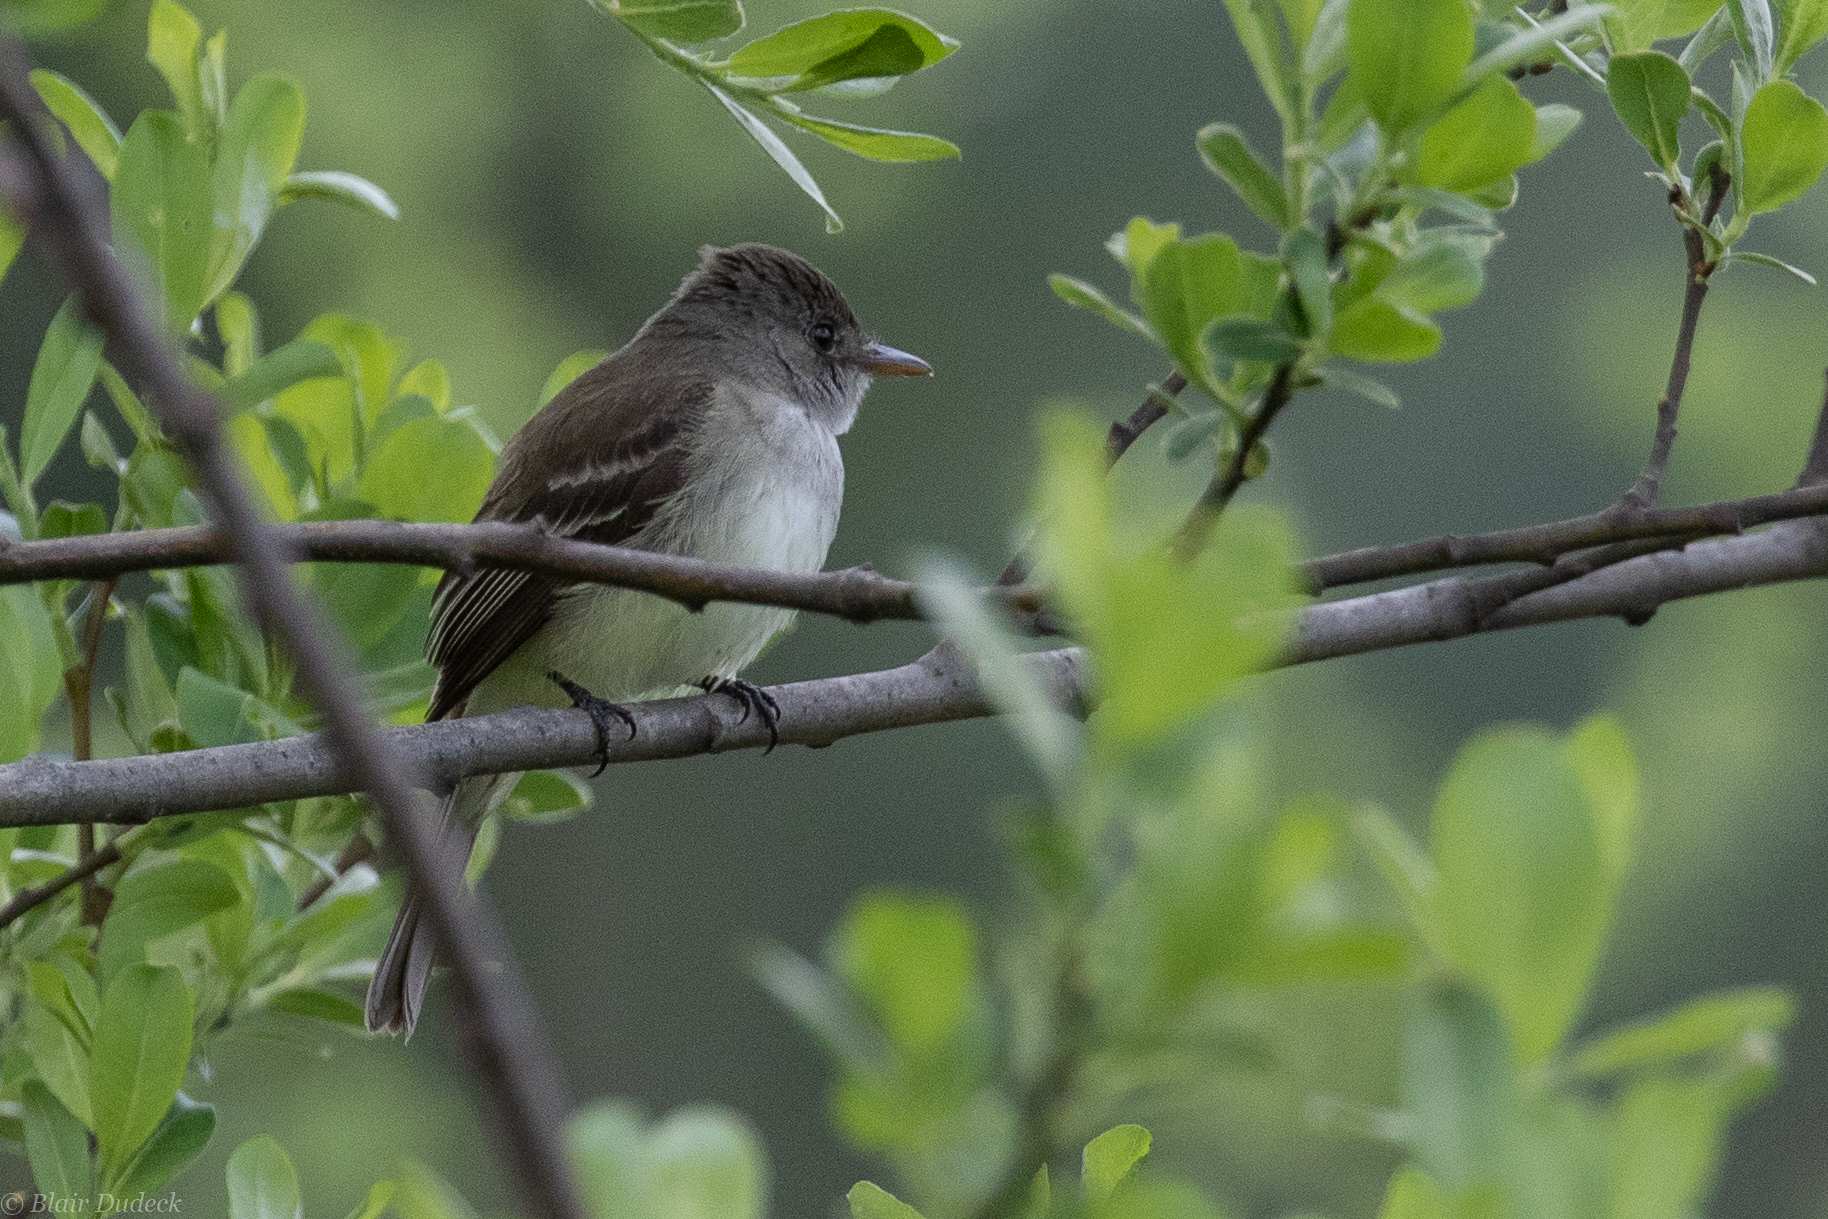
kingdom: Animalia
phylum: Chordata
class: Aves
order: Passeriformes
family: Tyrannidae
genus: Empidonax
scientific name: Empidonax traillii
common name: Willow flycatcher
